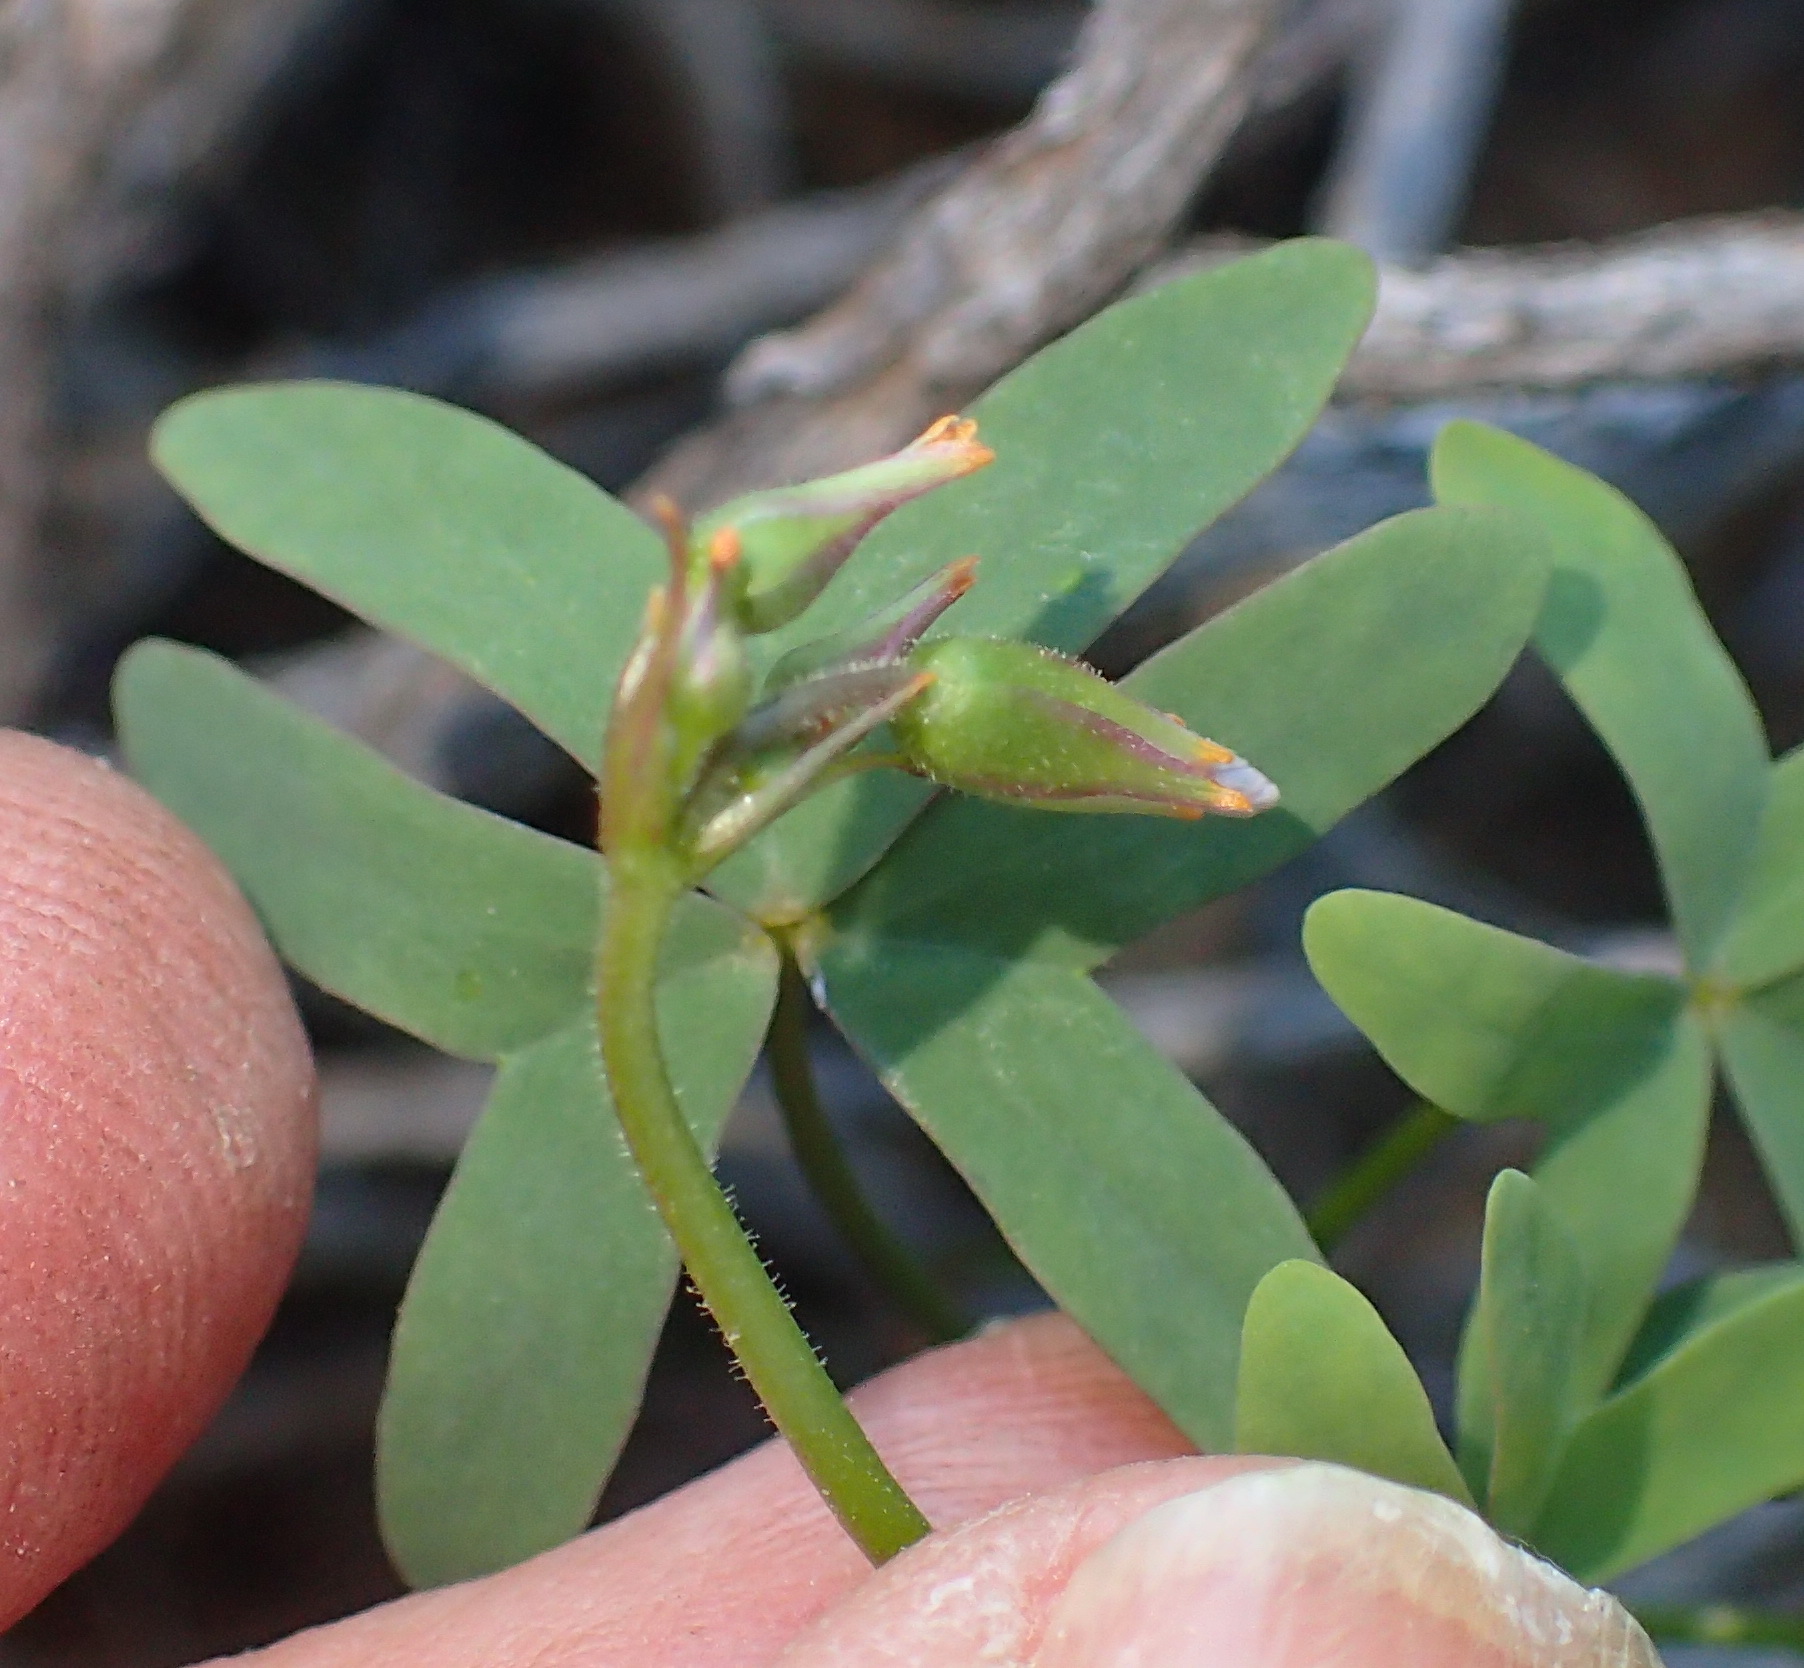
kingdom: Plantae
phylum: Tracheophyta
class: Magnoliopsida
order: Oxalidales
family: Oxalidaceae
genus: Oxalis
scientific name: Oxalis stellata
